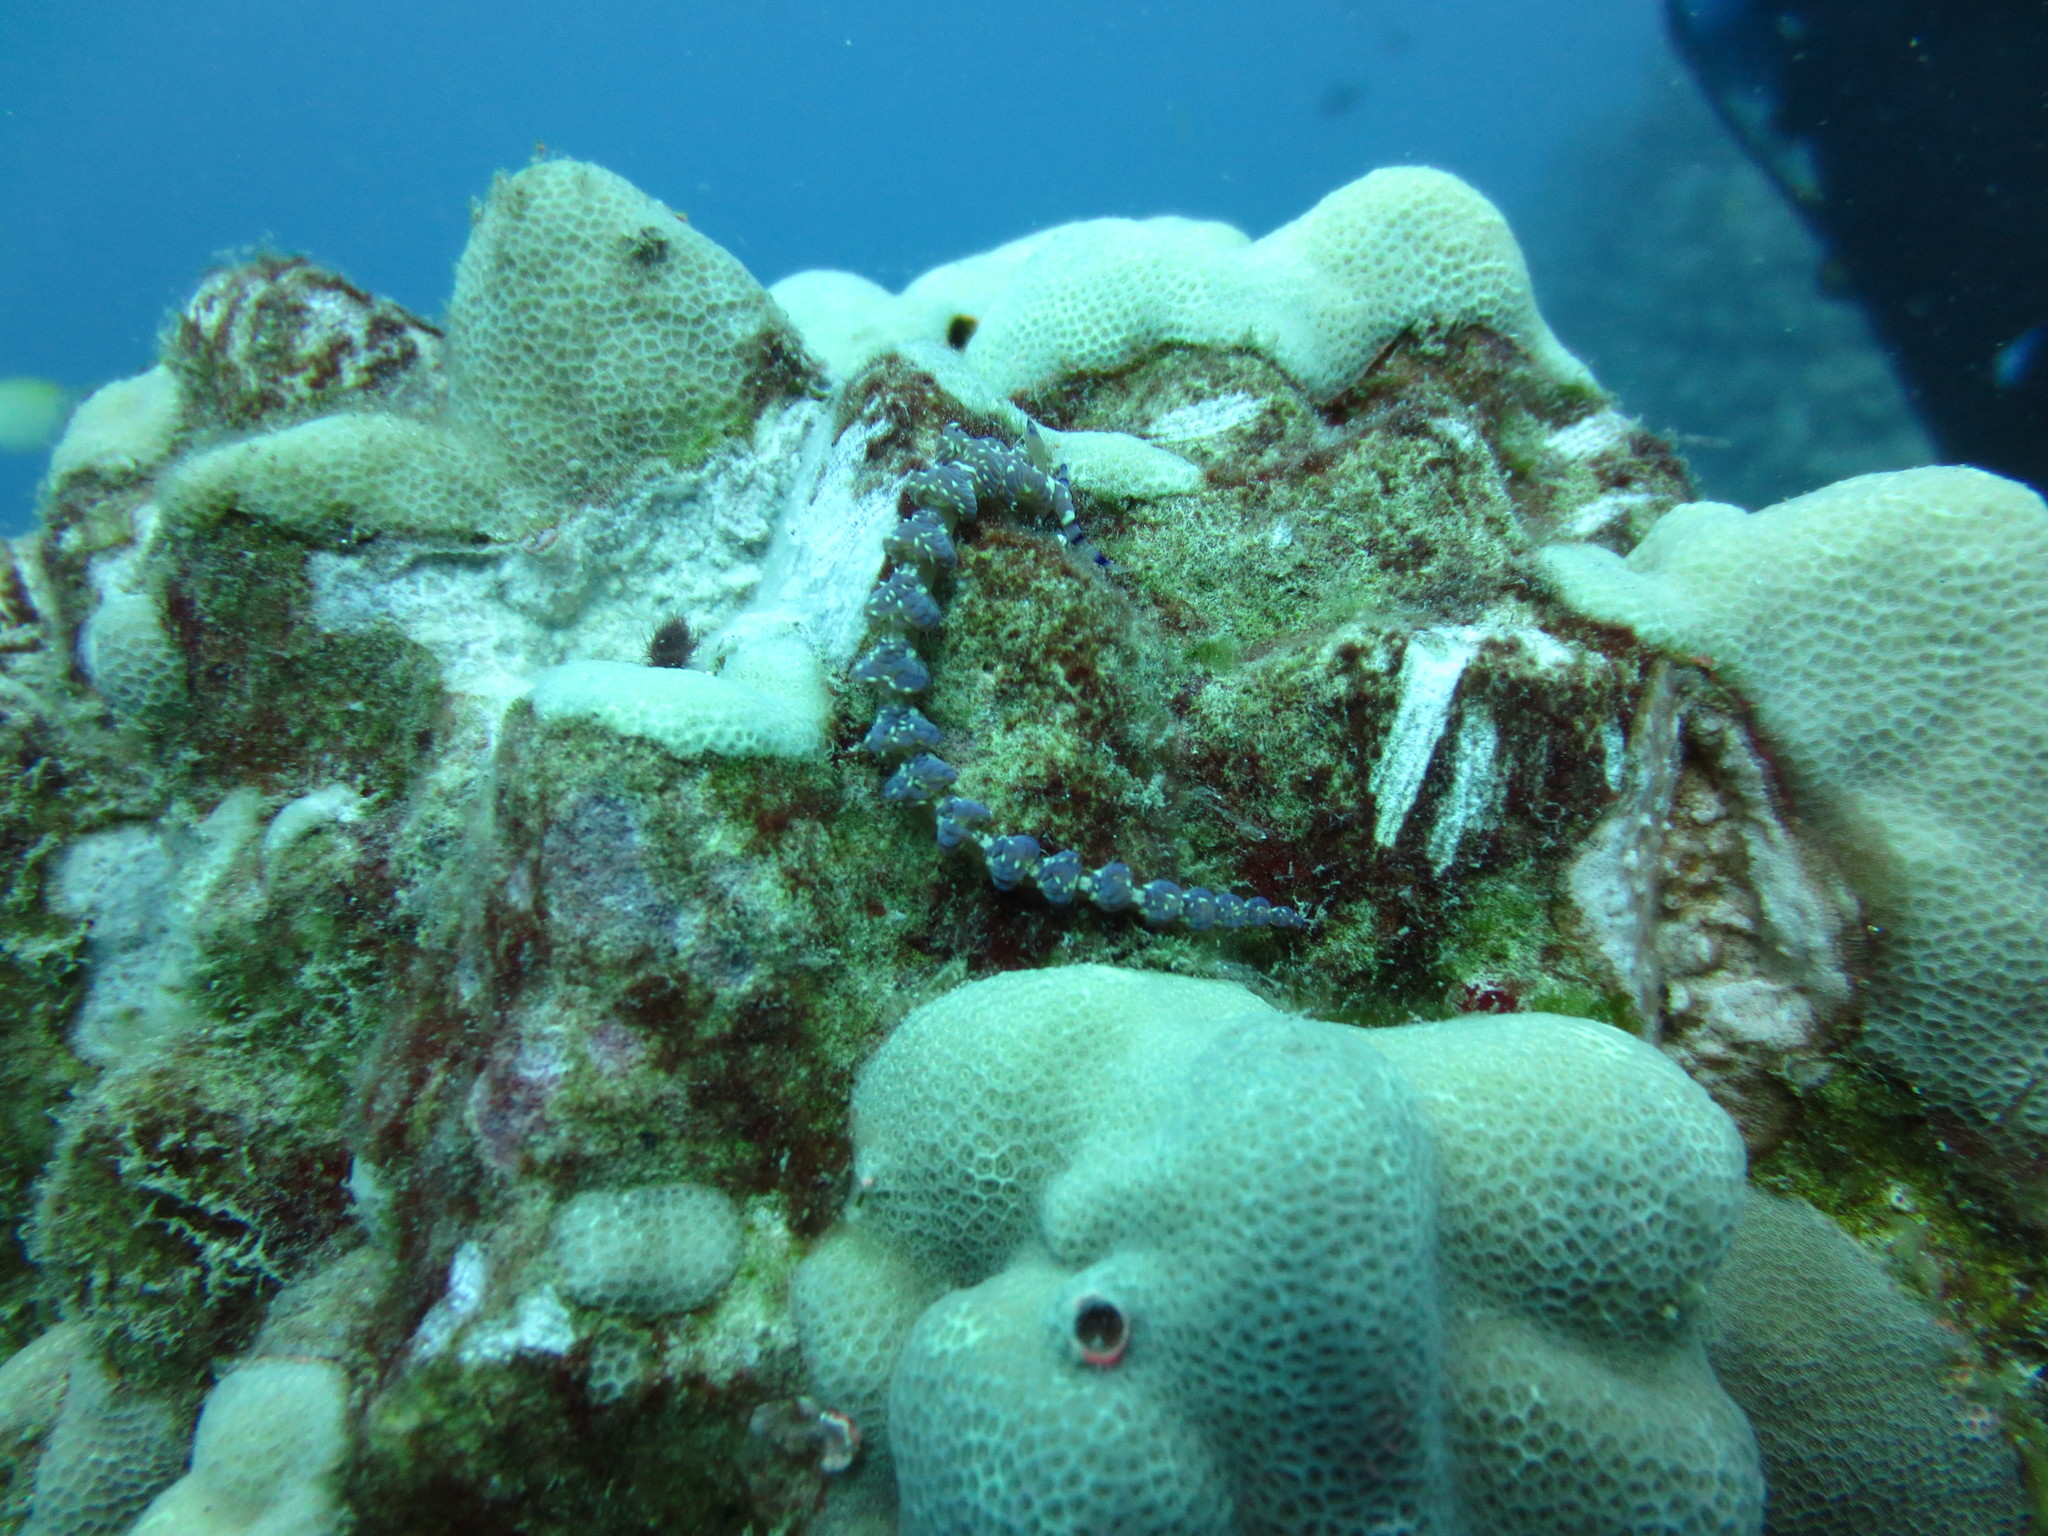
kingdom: Animalia
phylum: Mollusca
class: Gastropoda
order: Nudibranchia
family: Facelinidae
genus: Pteraeolidia
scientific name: Pteraeolidia semperi
